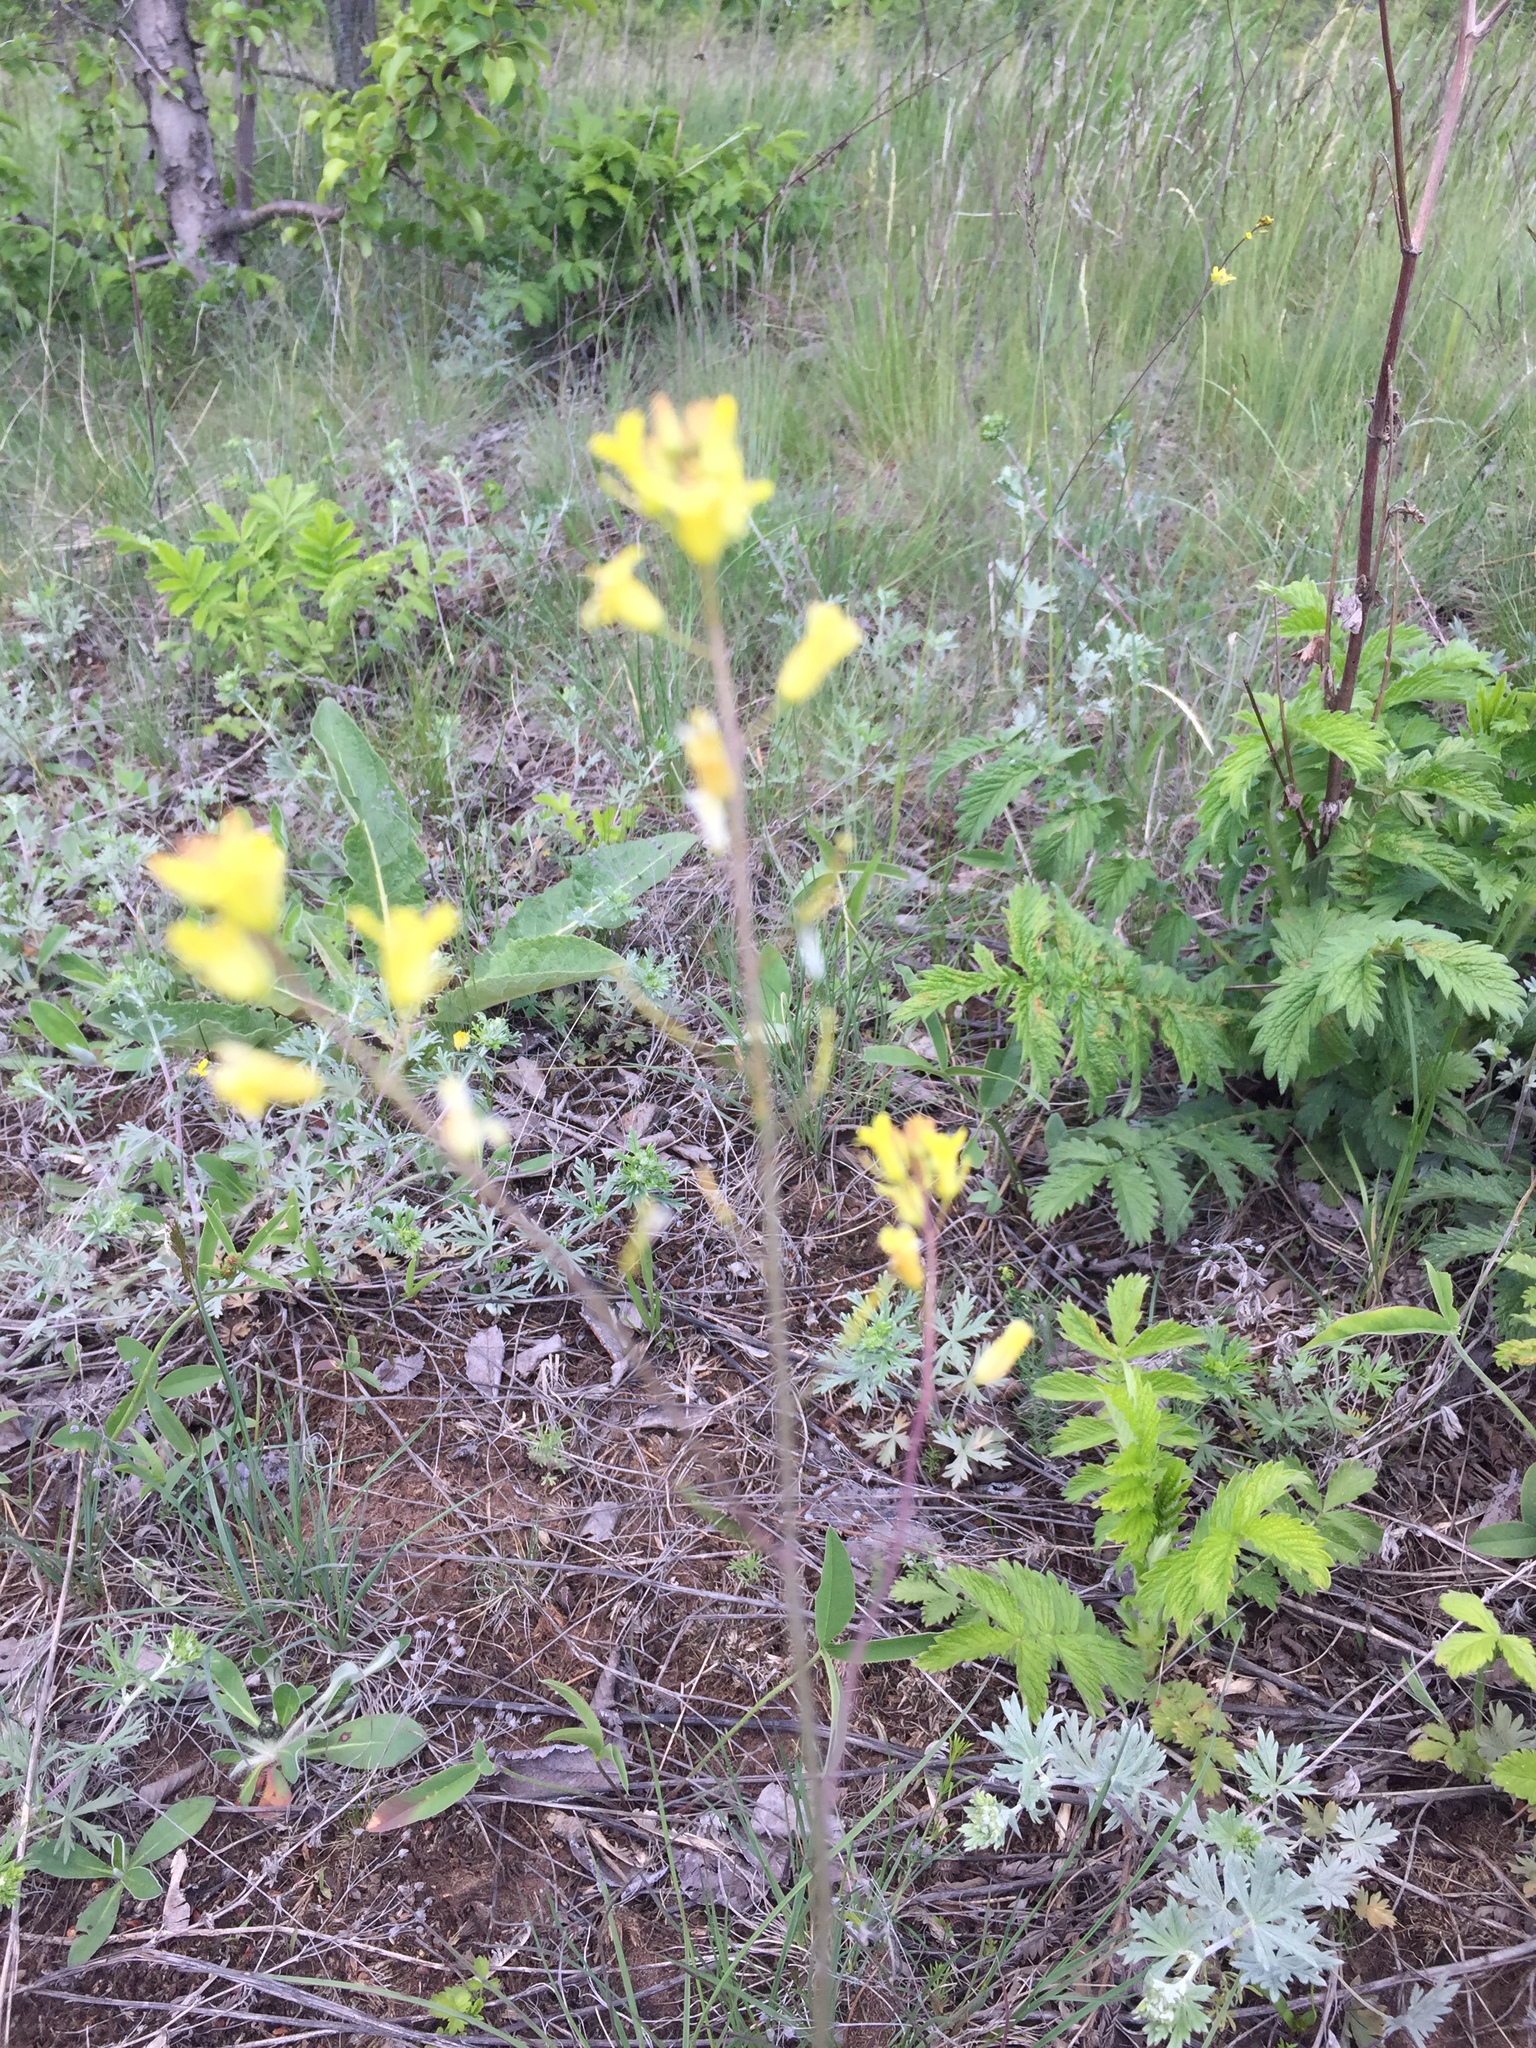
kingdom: Plantae
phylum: Tracheophyta
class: Magnoliopsida
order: Brassicales
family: Brassicaceae
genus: Sisymbrium
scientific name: Sisymbrium polymorphum
